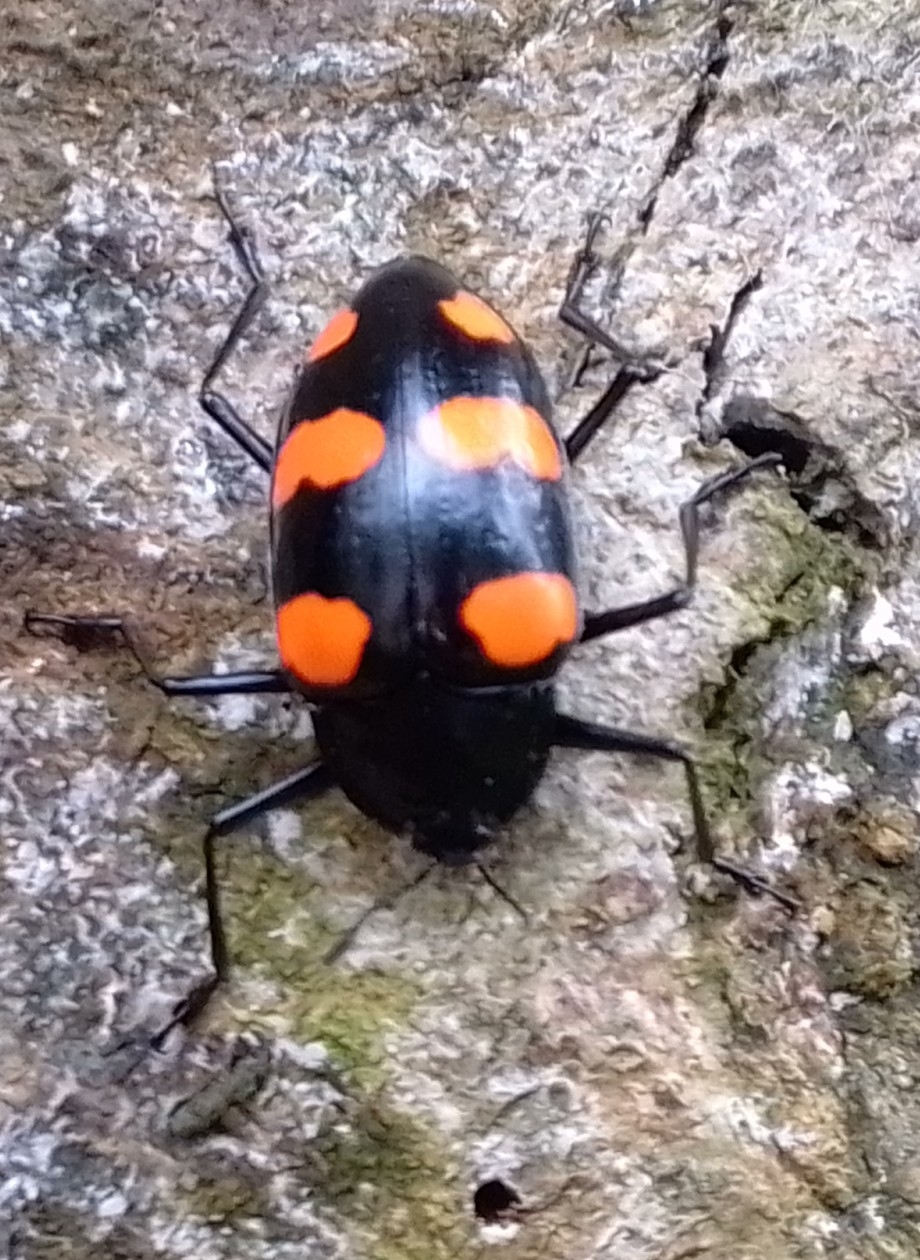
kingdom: Animalia
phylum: Arthropoda
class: Insecta
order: Coleoptera
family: Erotylidae
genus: Scaphidomorphus
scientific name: Scaphidomorphus bosci
